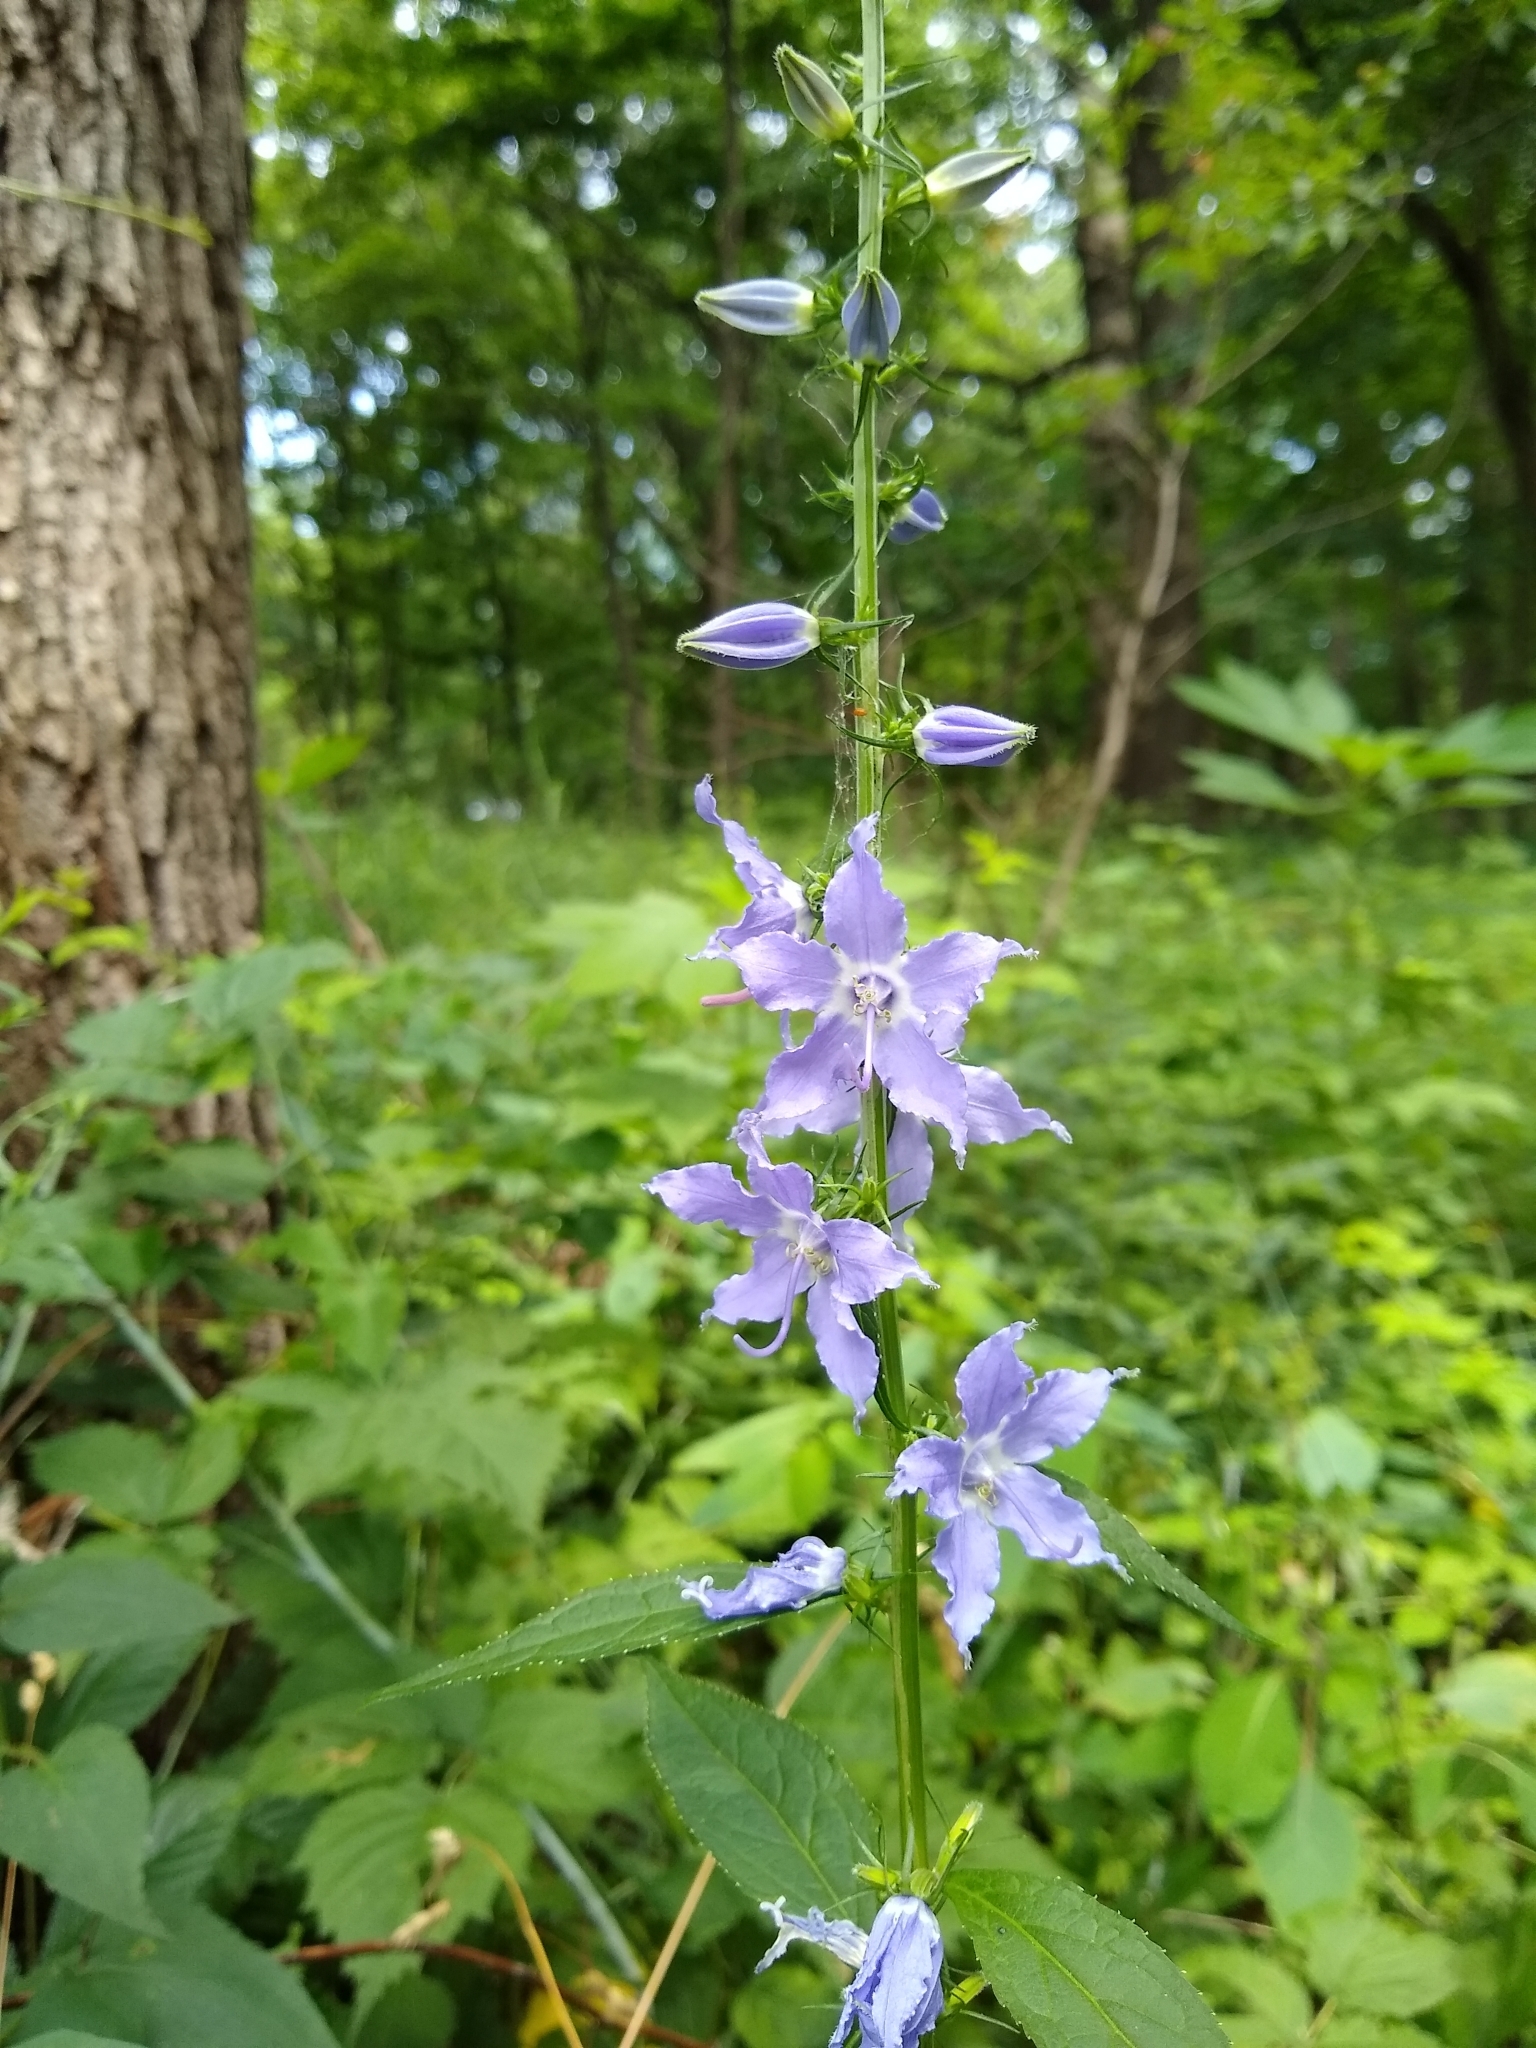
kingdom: Plantae
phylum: Tracheophyta
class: Magnoliopsida
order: Asterales
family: Campanulaceae
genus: Campanulastrum
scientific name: Campanulastrum americanum
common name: American bellflower
